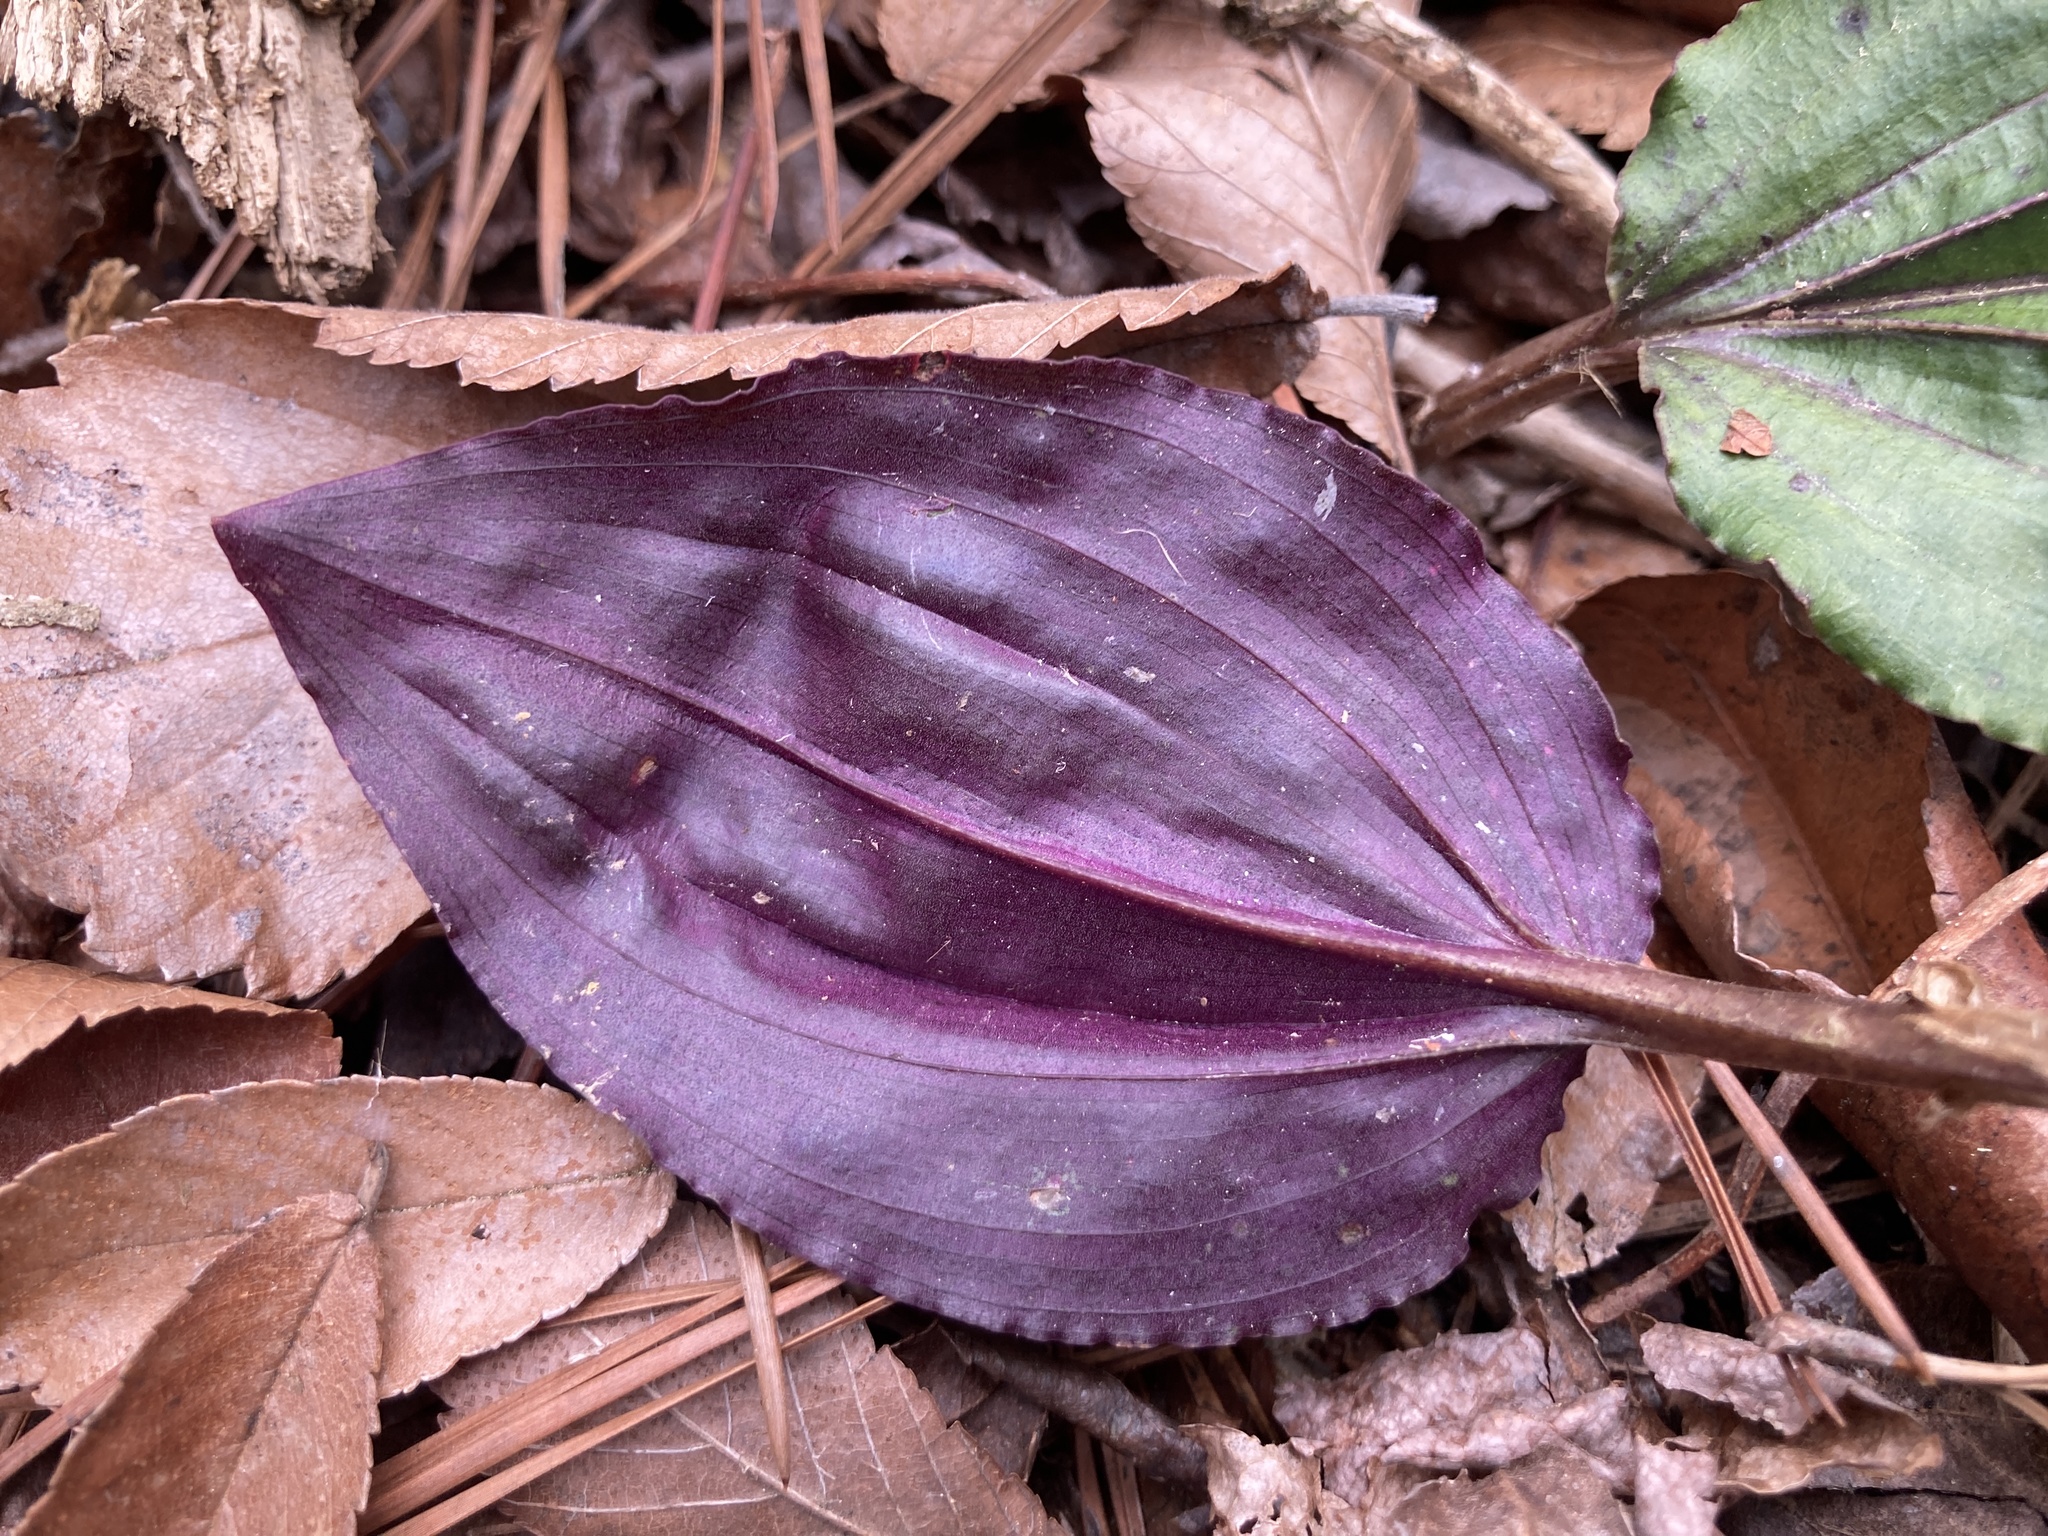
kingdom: Plantae
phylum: Tracheophyta
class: Liliopsida
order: Asparagales
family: Orchidaceae
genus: Tipularia
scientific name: Tipularia discolor
